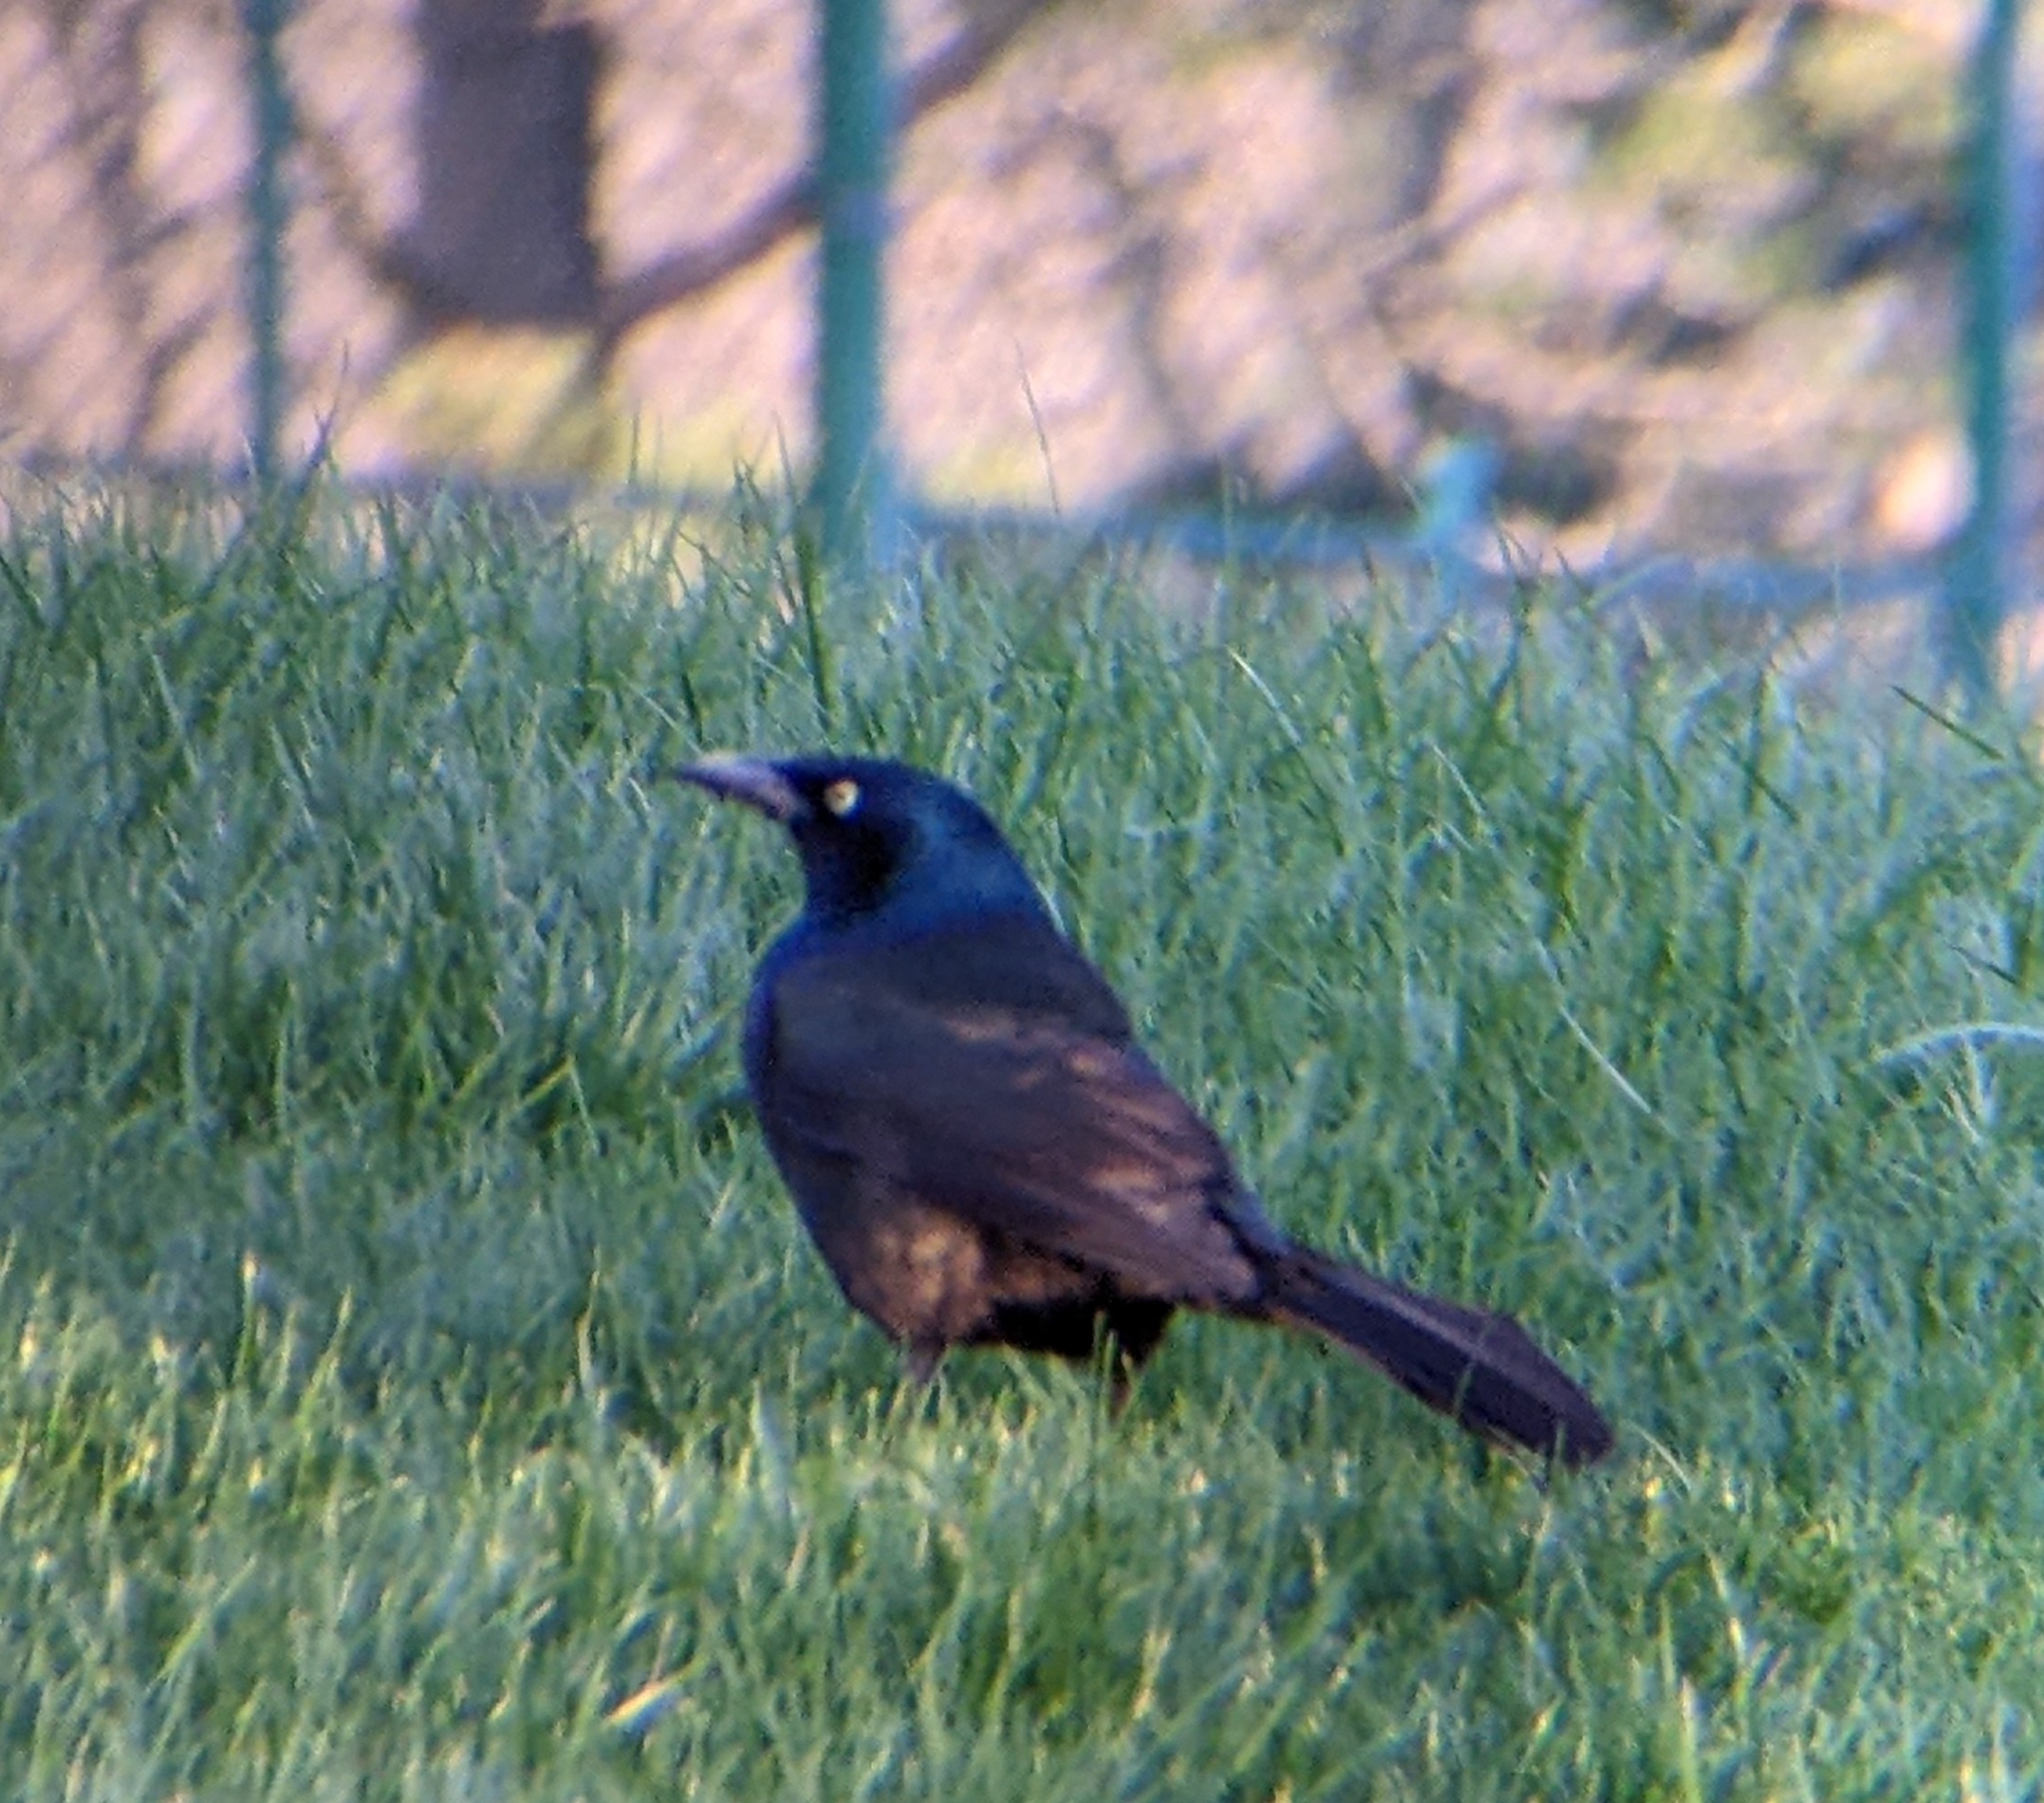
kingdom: Animalia
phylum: Chordata
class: Aves
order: Passeriformes
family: Icteridae
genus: Quiscalus
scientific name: Quiscalus quiscula
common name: Common grackle
